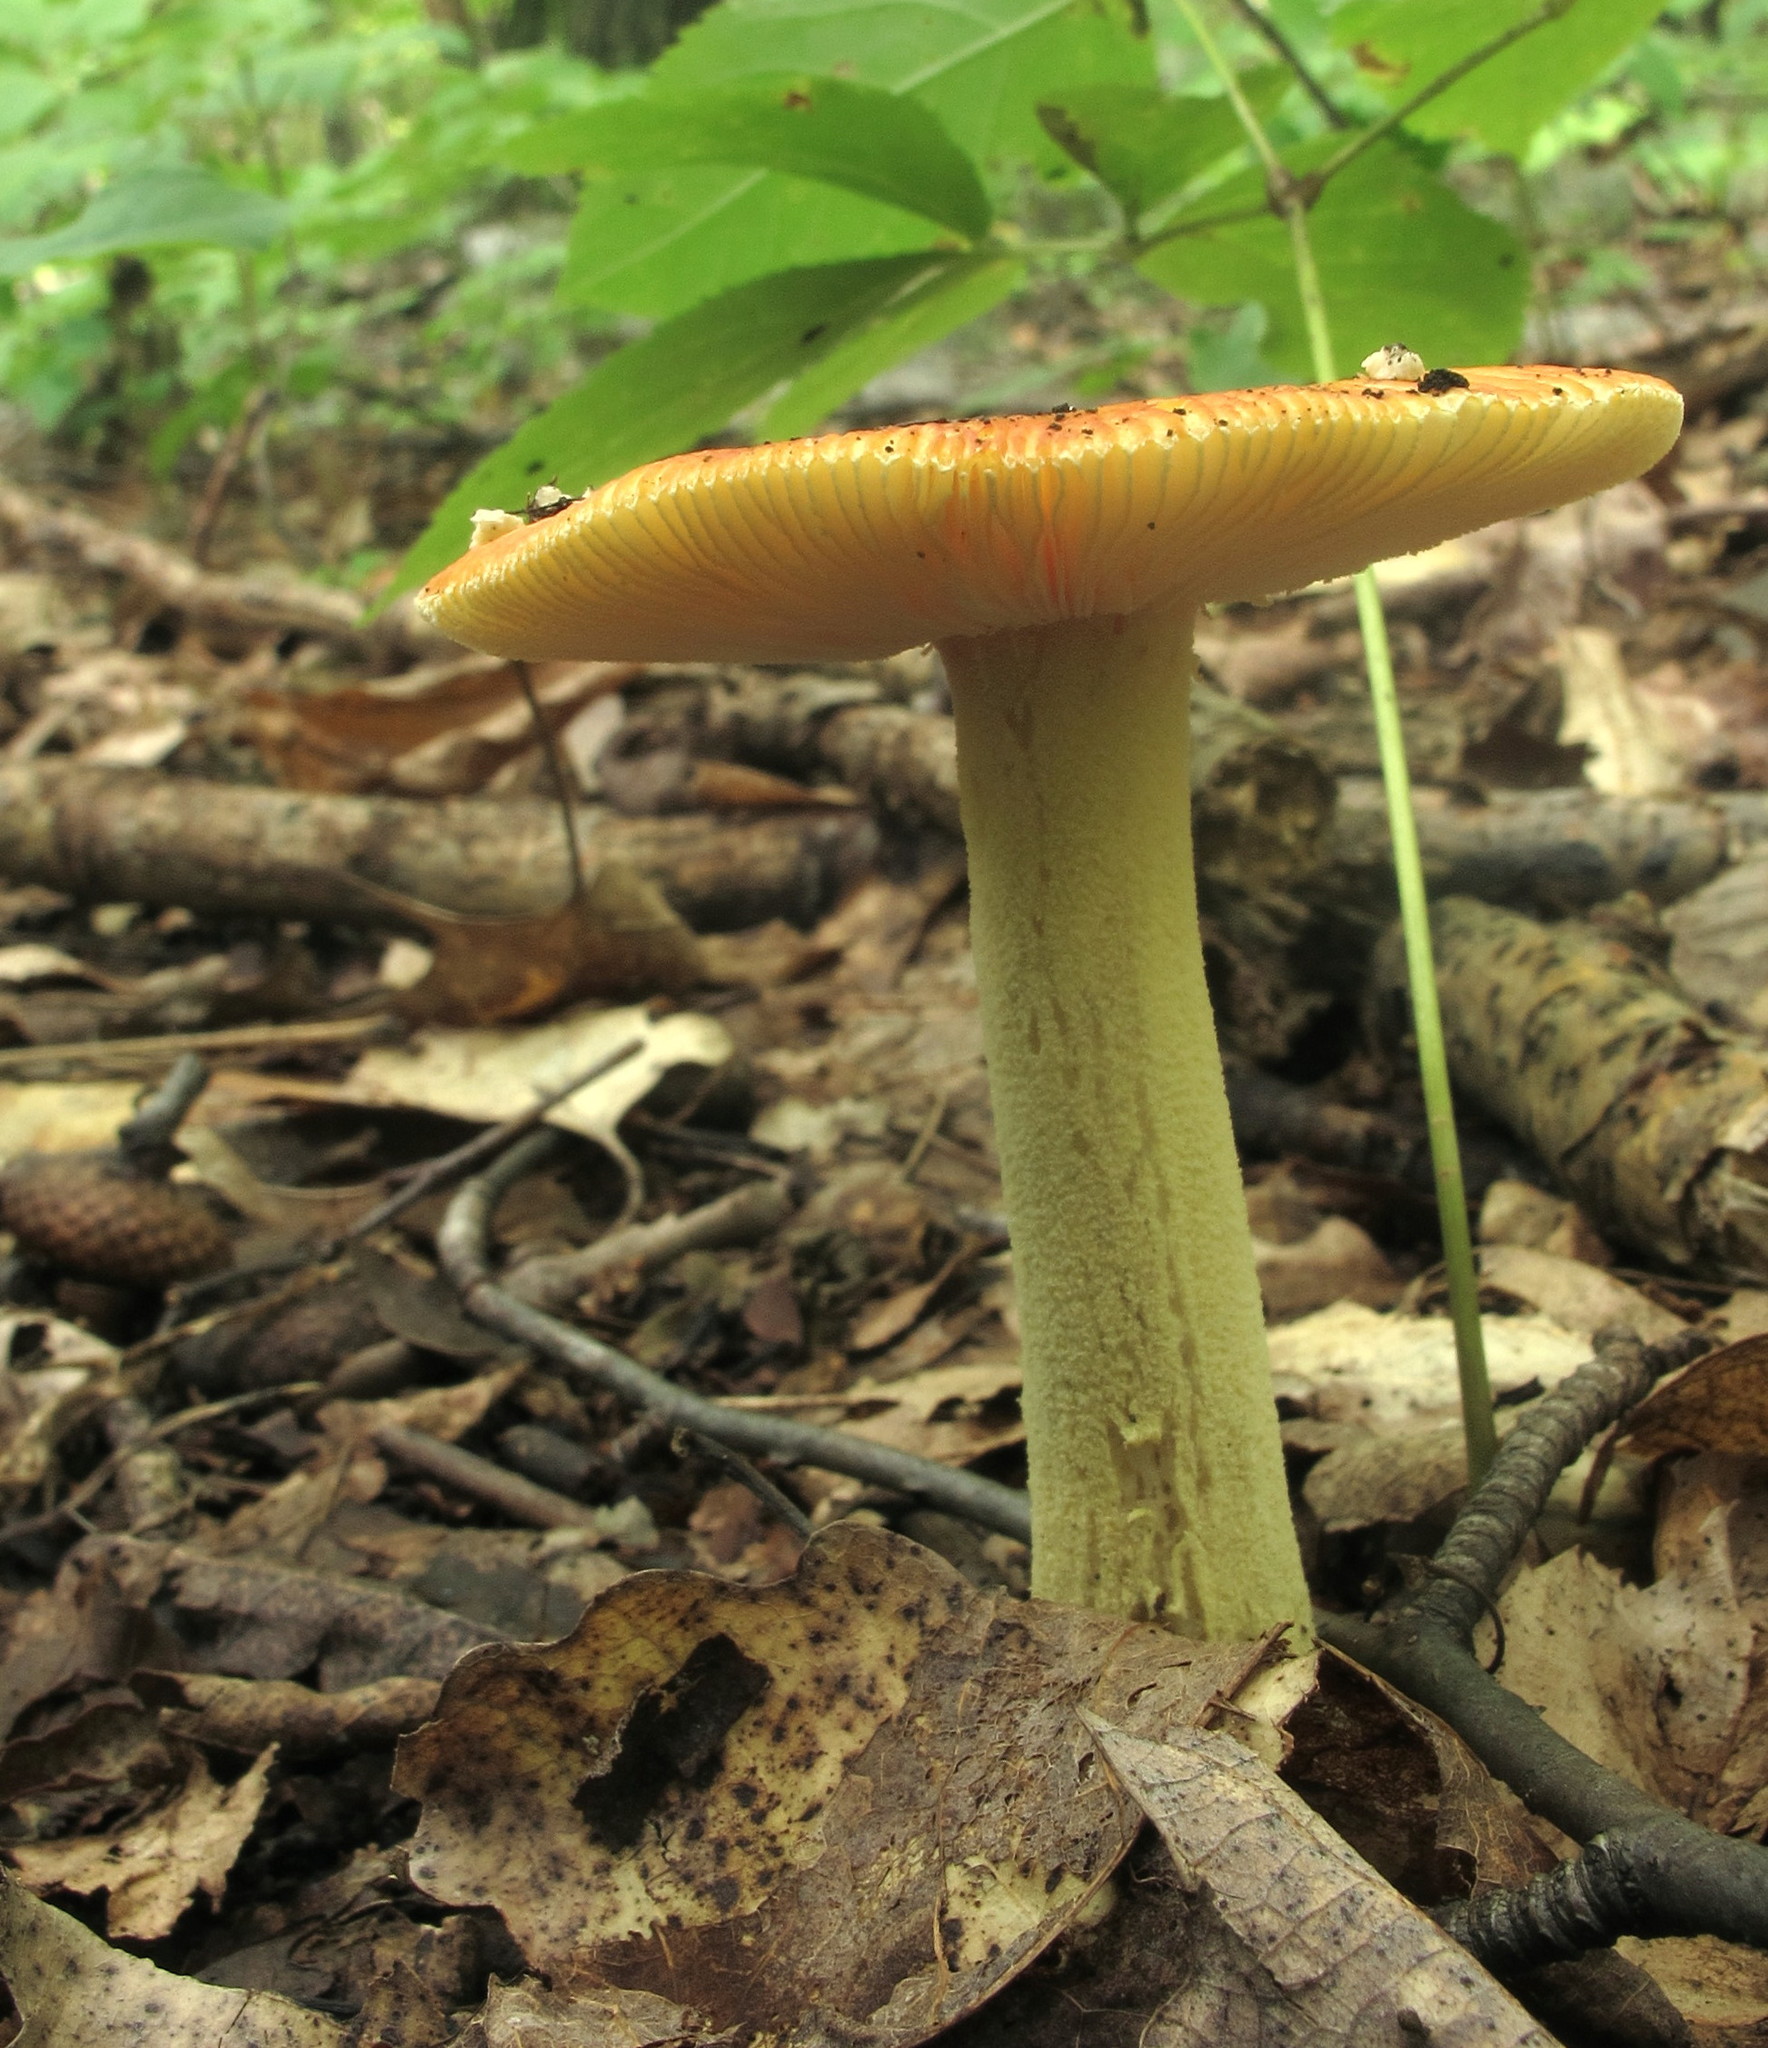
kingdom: Fungi
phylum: Basidiomycota
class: Agaricomycetes
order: Agaricales
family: Amanitaceae
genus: Amanita
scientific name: Amanita parcivolvata
